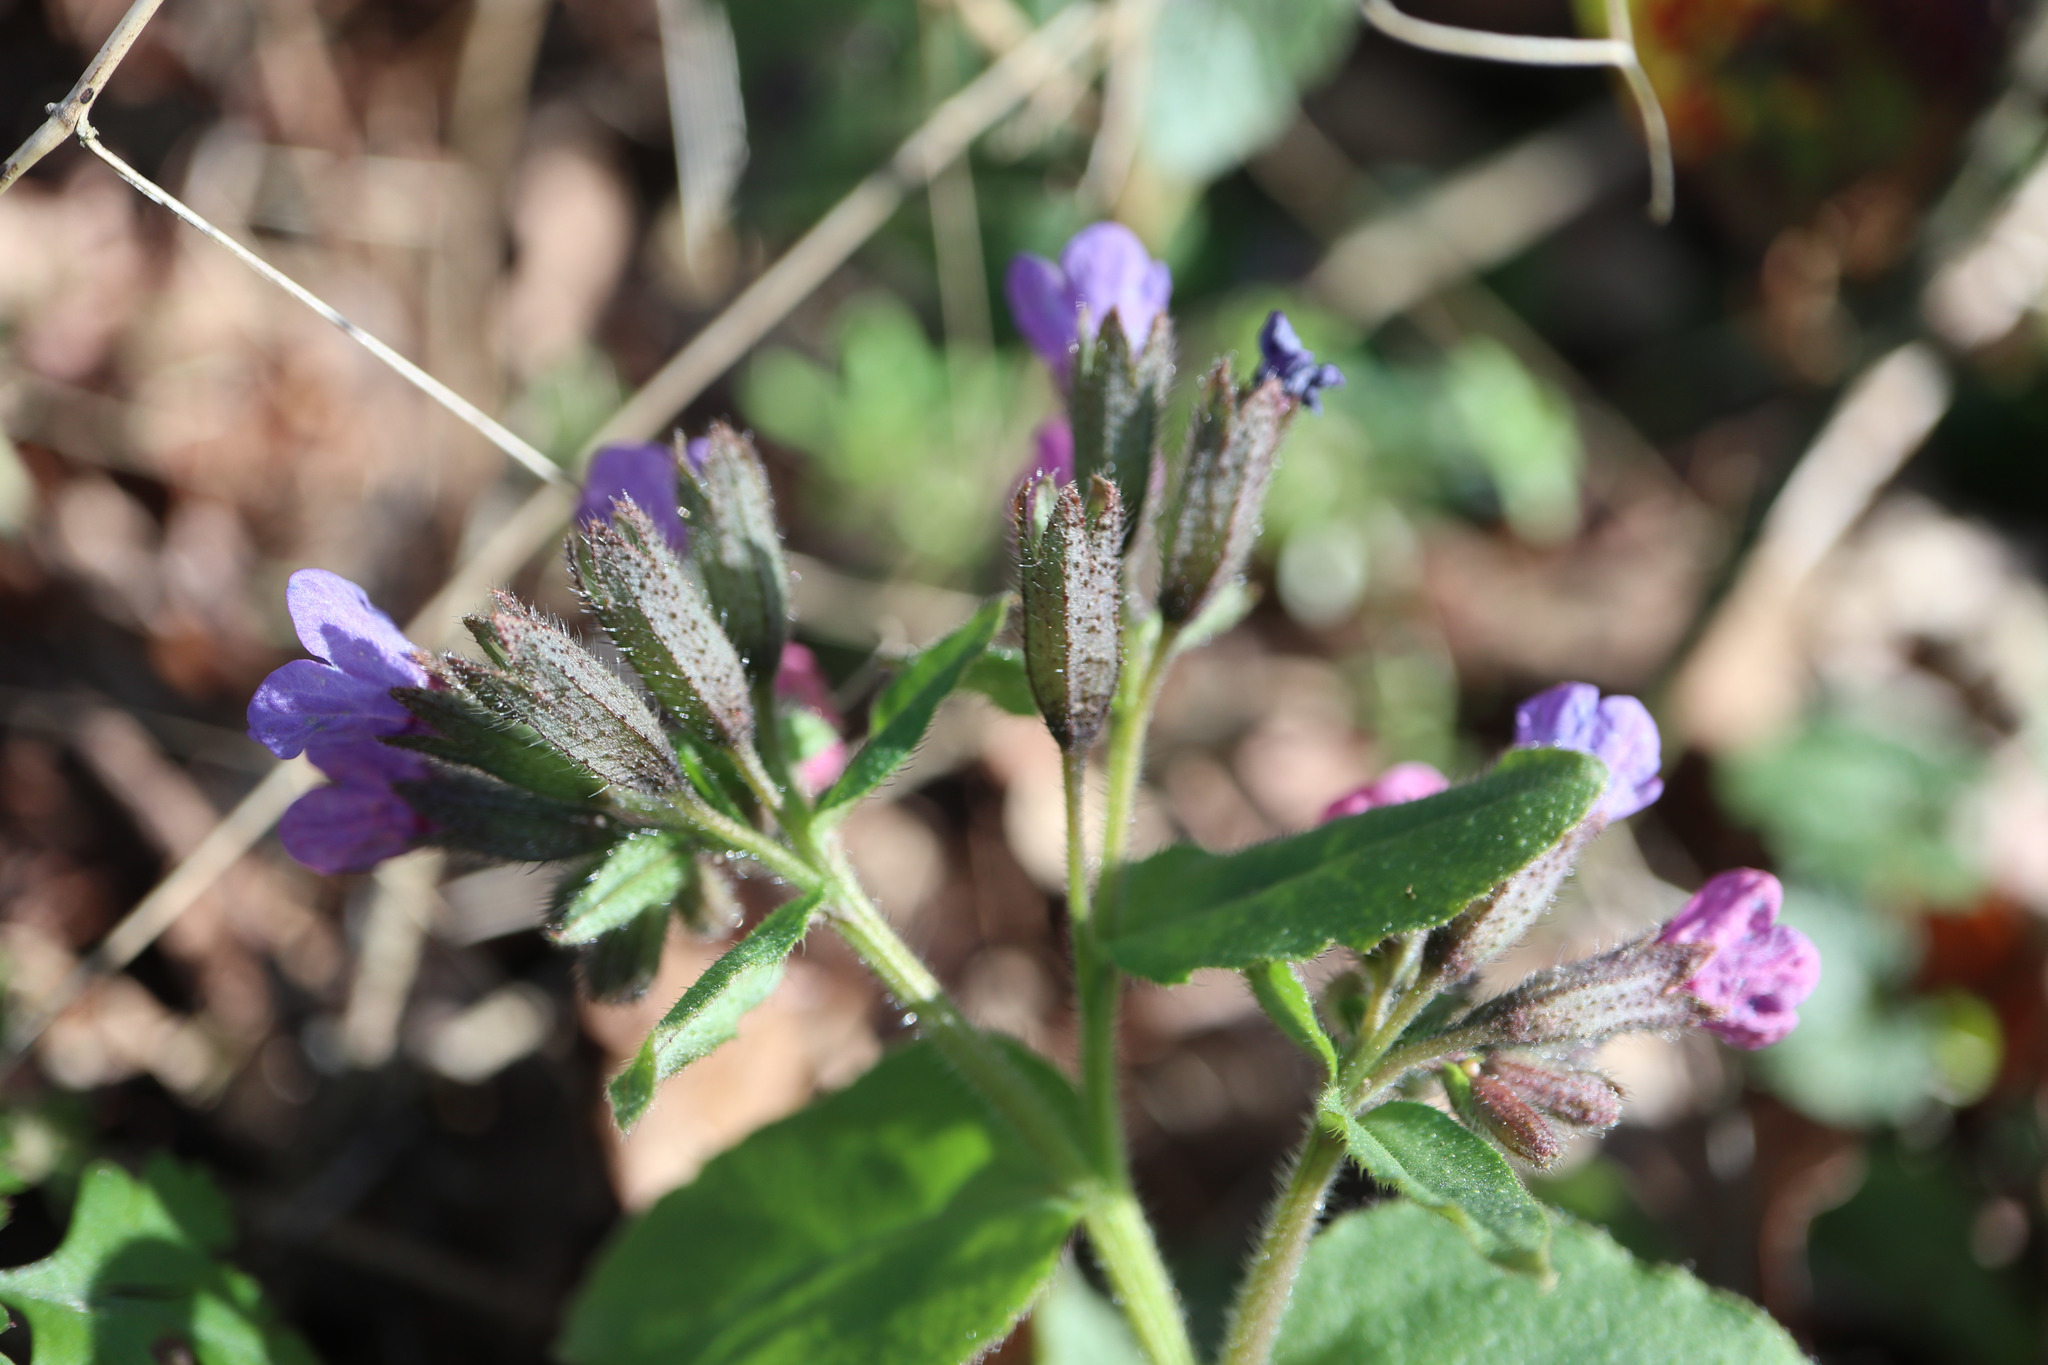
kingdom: Plantae
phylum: Tracheophyta
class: Magnoliopsida
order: Boraginales
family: Boraginaceae
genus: Pulmonaria
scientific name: Pulmonaria obscura
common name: Suffolk lungwort
